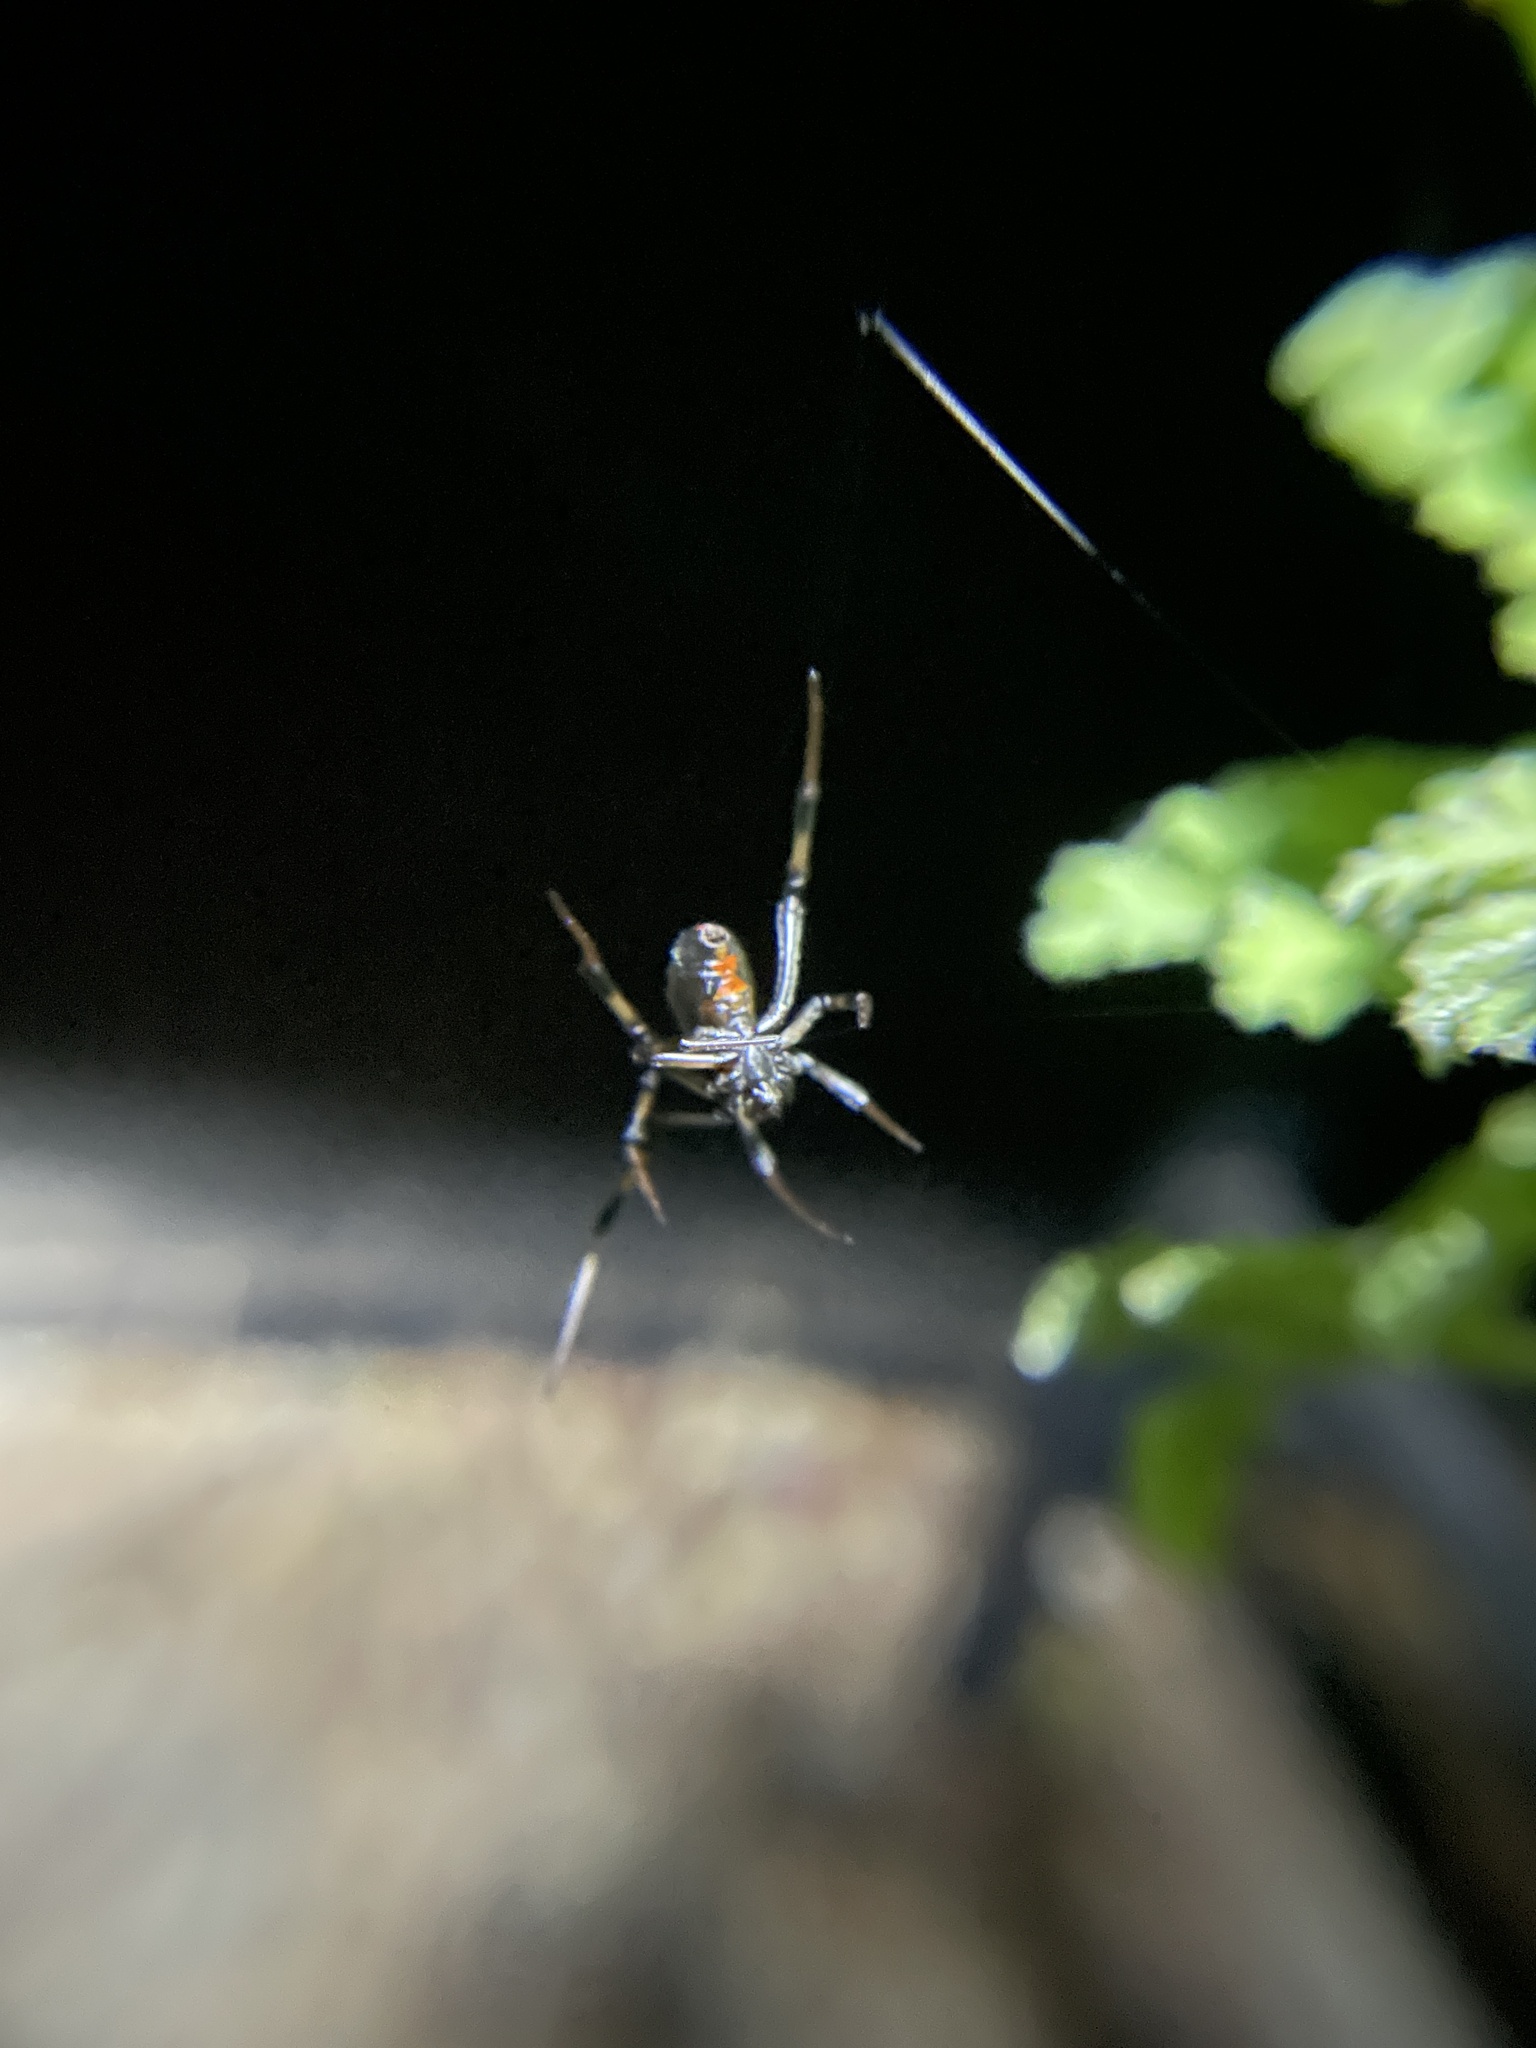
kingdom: Animalia
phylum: Arthropoda
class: Arachnida
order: Araneae
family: Theridiidae
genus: Latrodectus
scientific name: Latrodectus hesperus
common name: Western black widow
